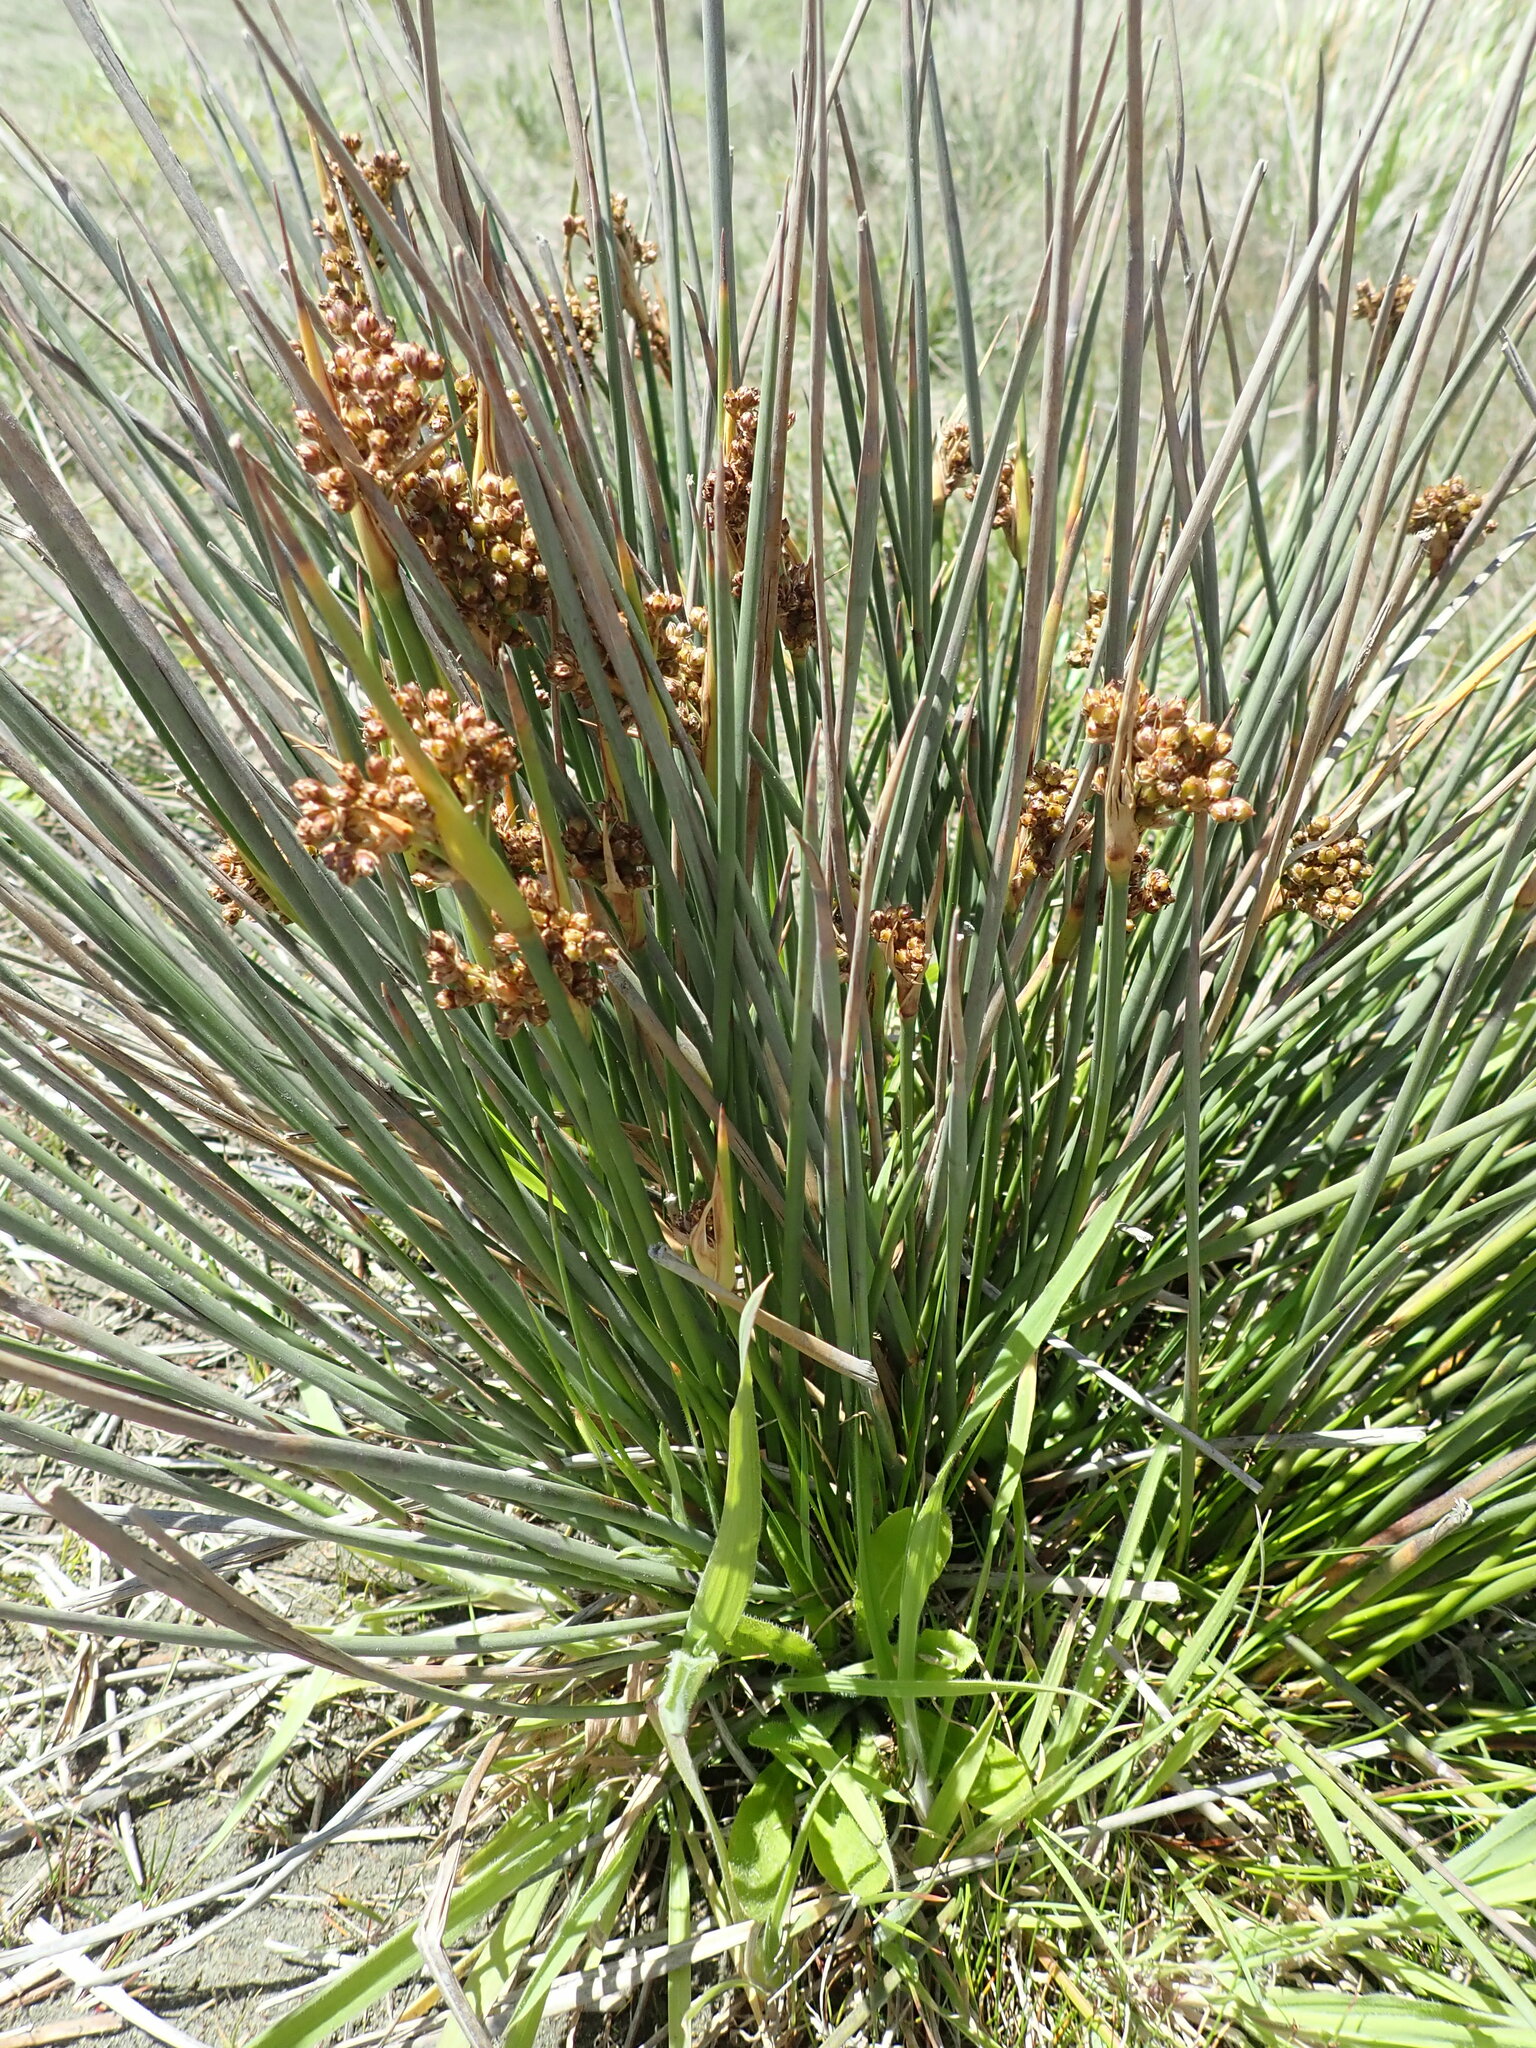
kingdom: Plantae
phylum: Tracheophyta
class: Liliopsida
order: Poales
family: Juncaceae
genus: Juncus
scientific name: Juncus acutus
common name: Sharp rush
